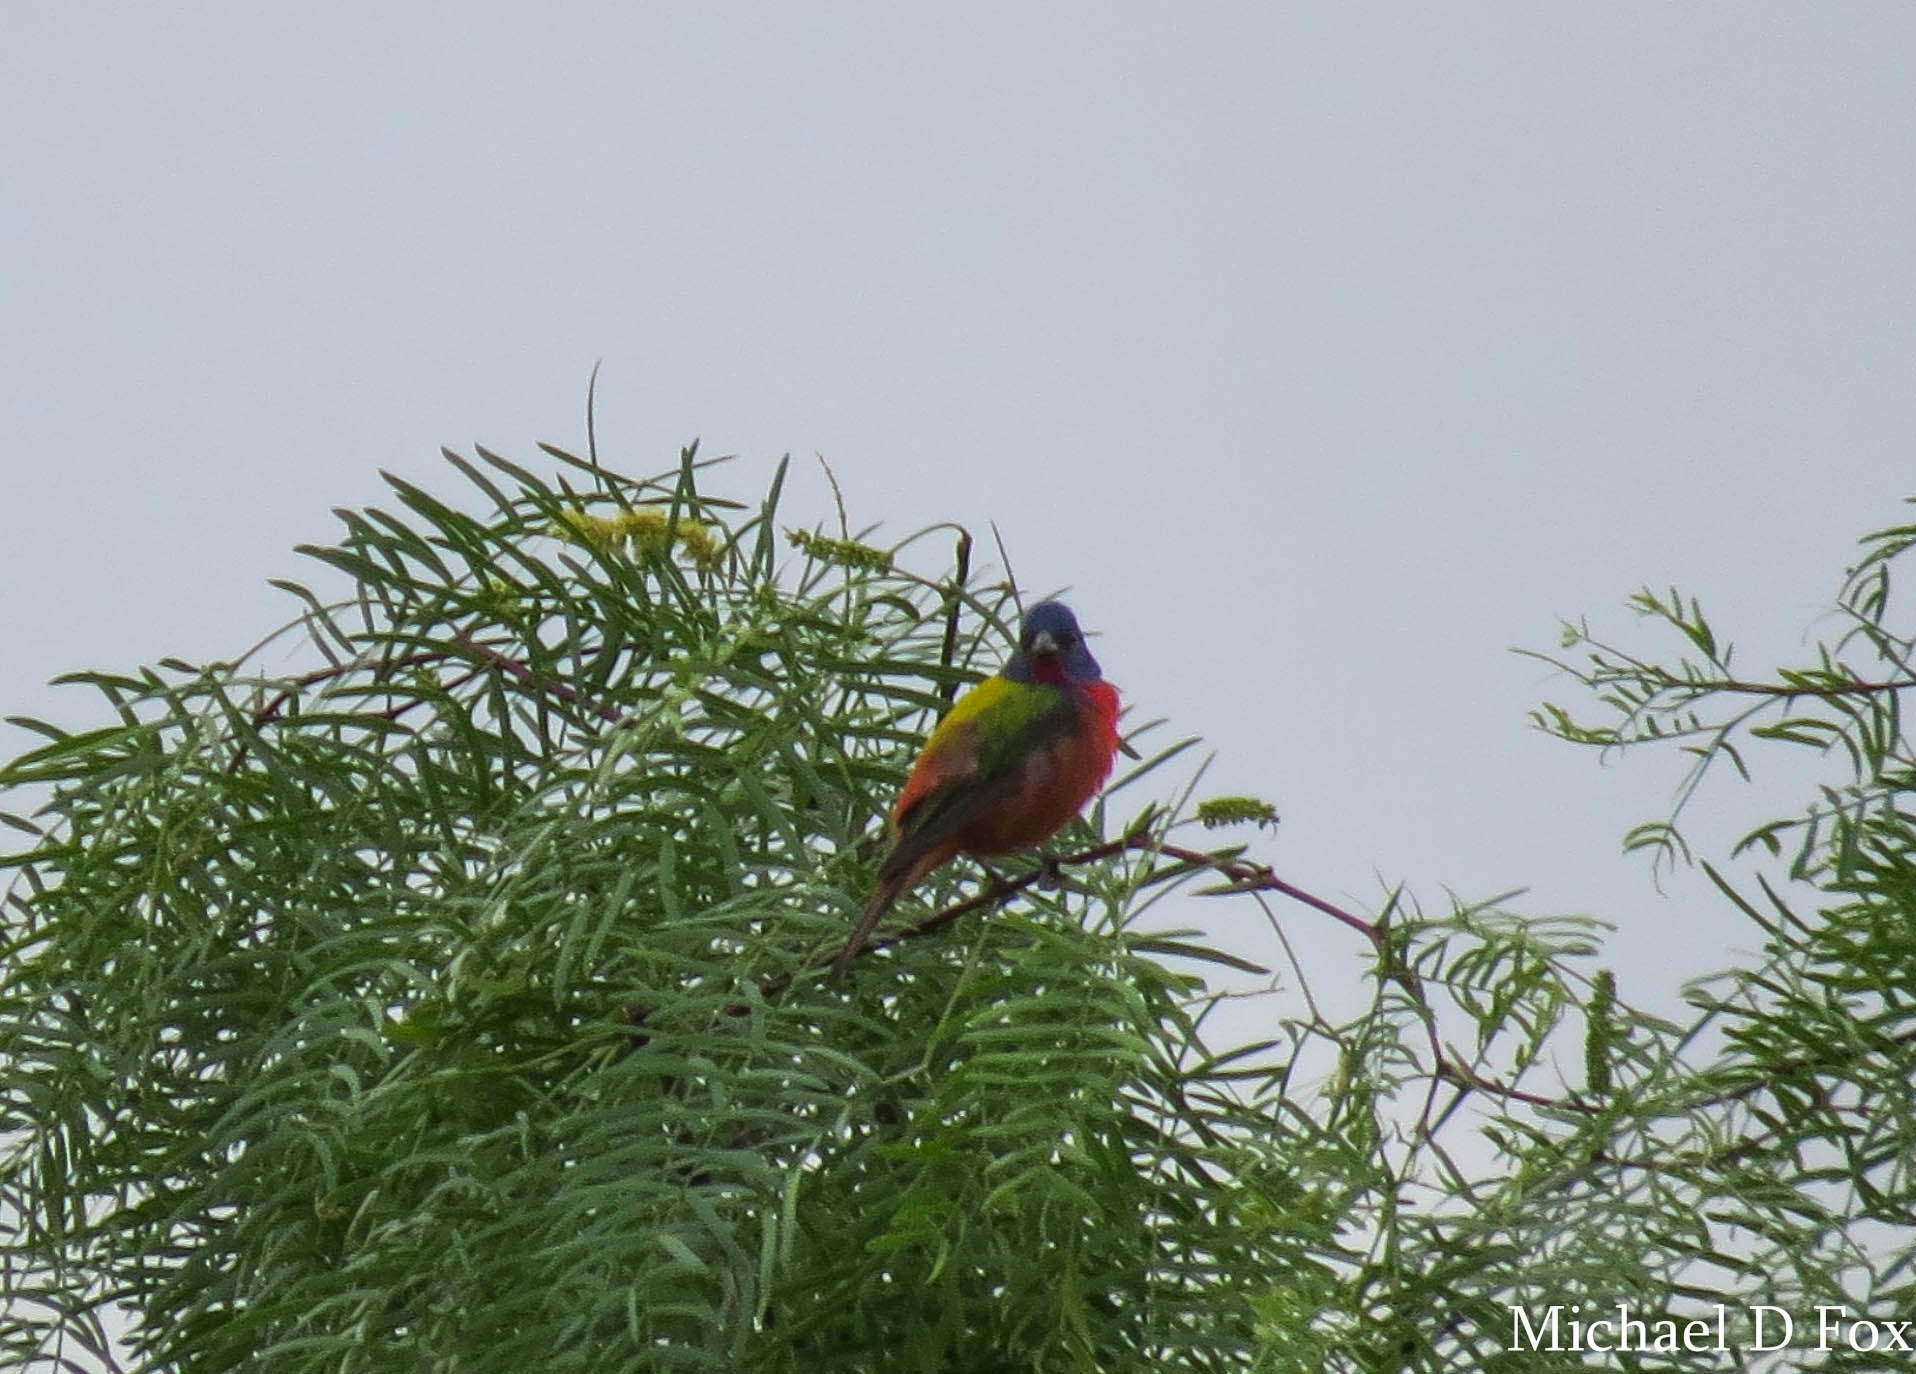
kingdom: Animalia
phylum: Chordata
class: Aves
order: Passeriformes
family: Cardinalidae
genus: Passerina
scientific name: Passerina ciris
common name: Painted bunting
